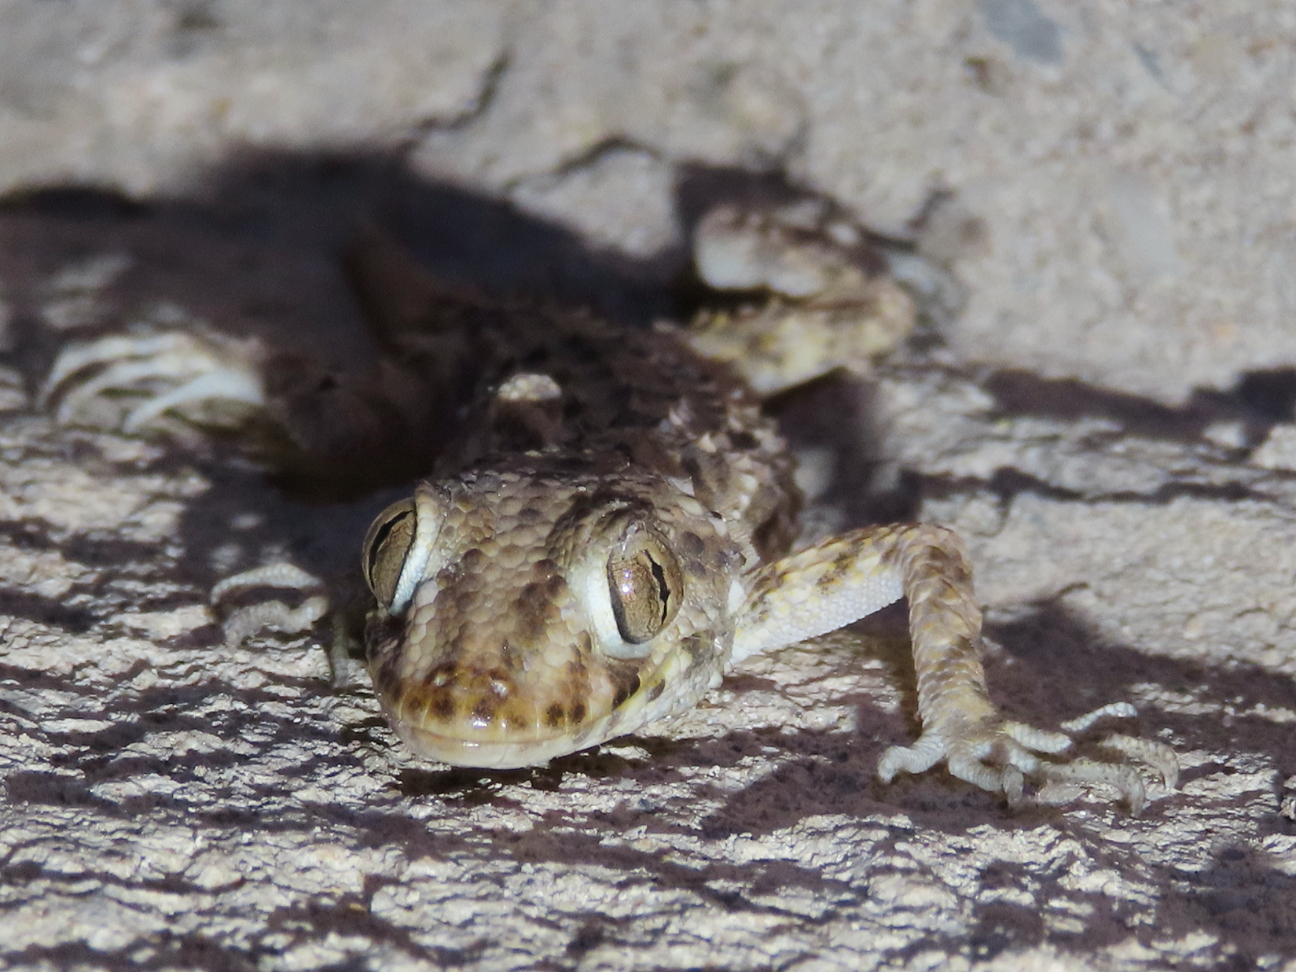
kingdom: Animalia
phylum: Chordata
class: Squamata
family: Gekkonidae
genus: Tenuidactylus
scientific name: Tenuidactylus caspius
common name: Caspian bent-toed gecko
